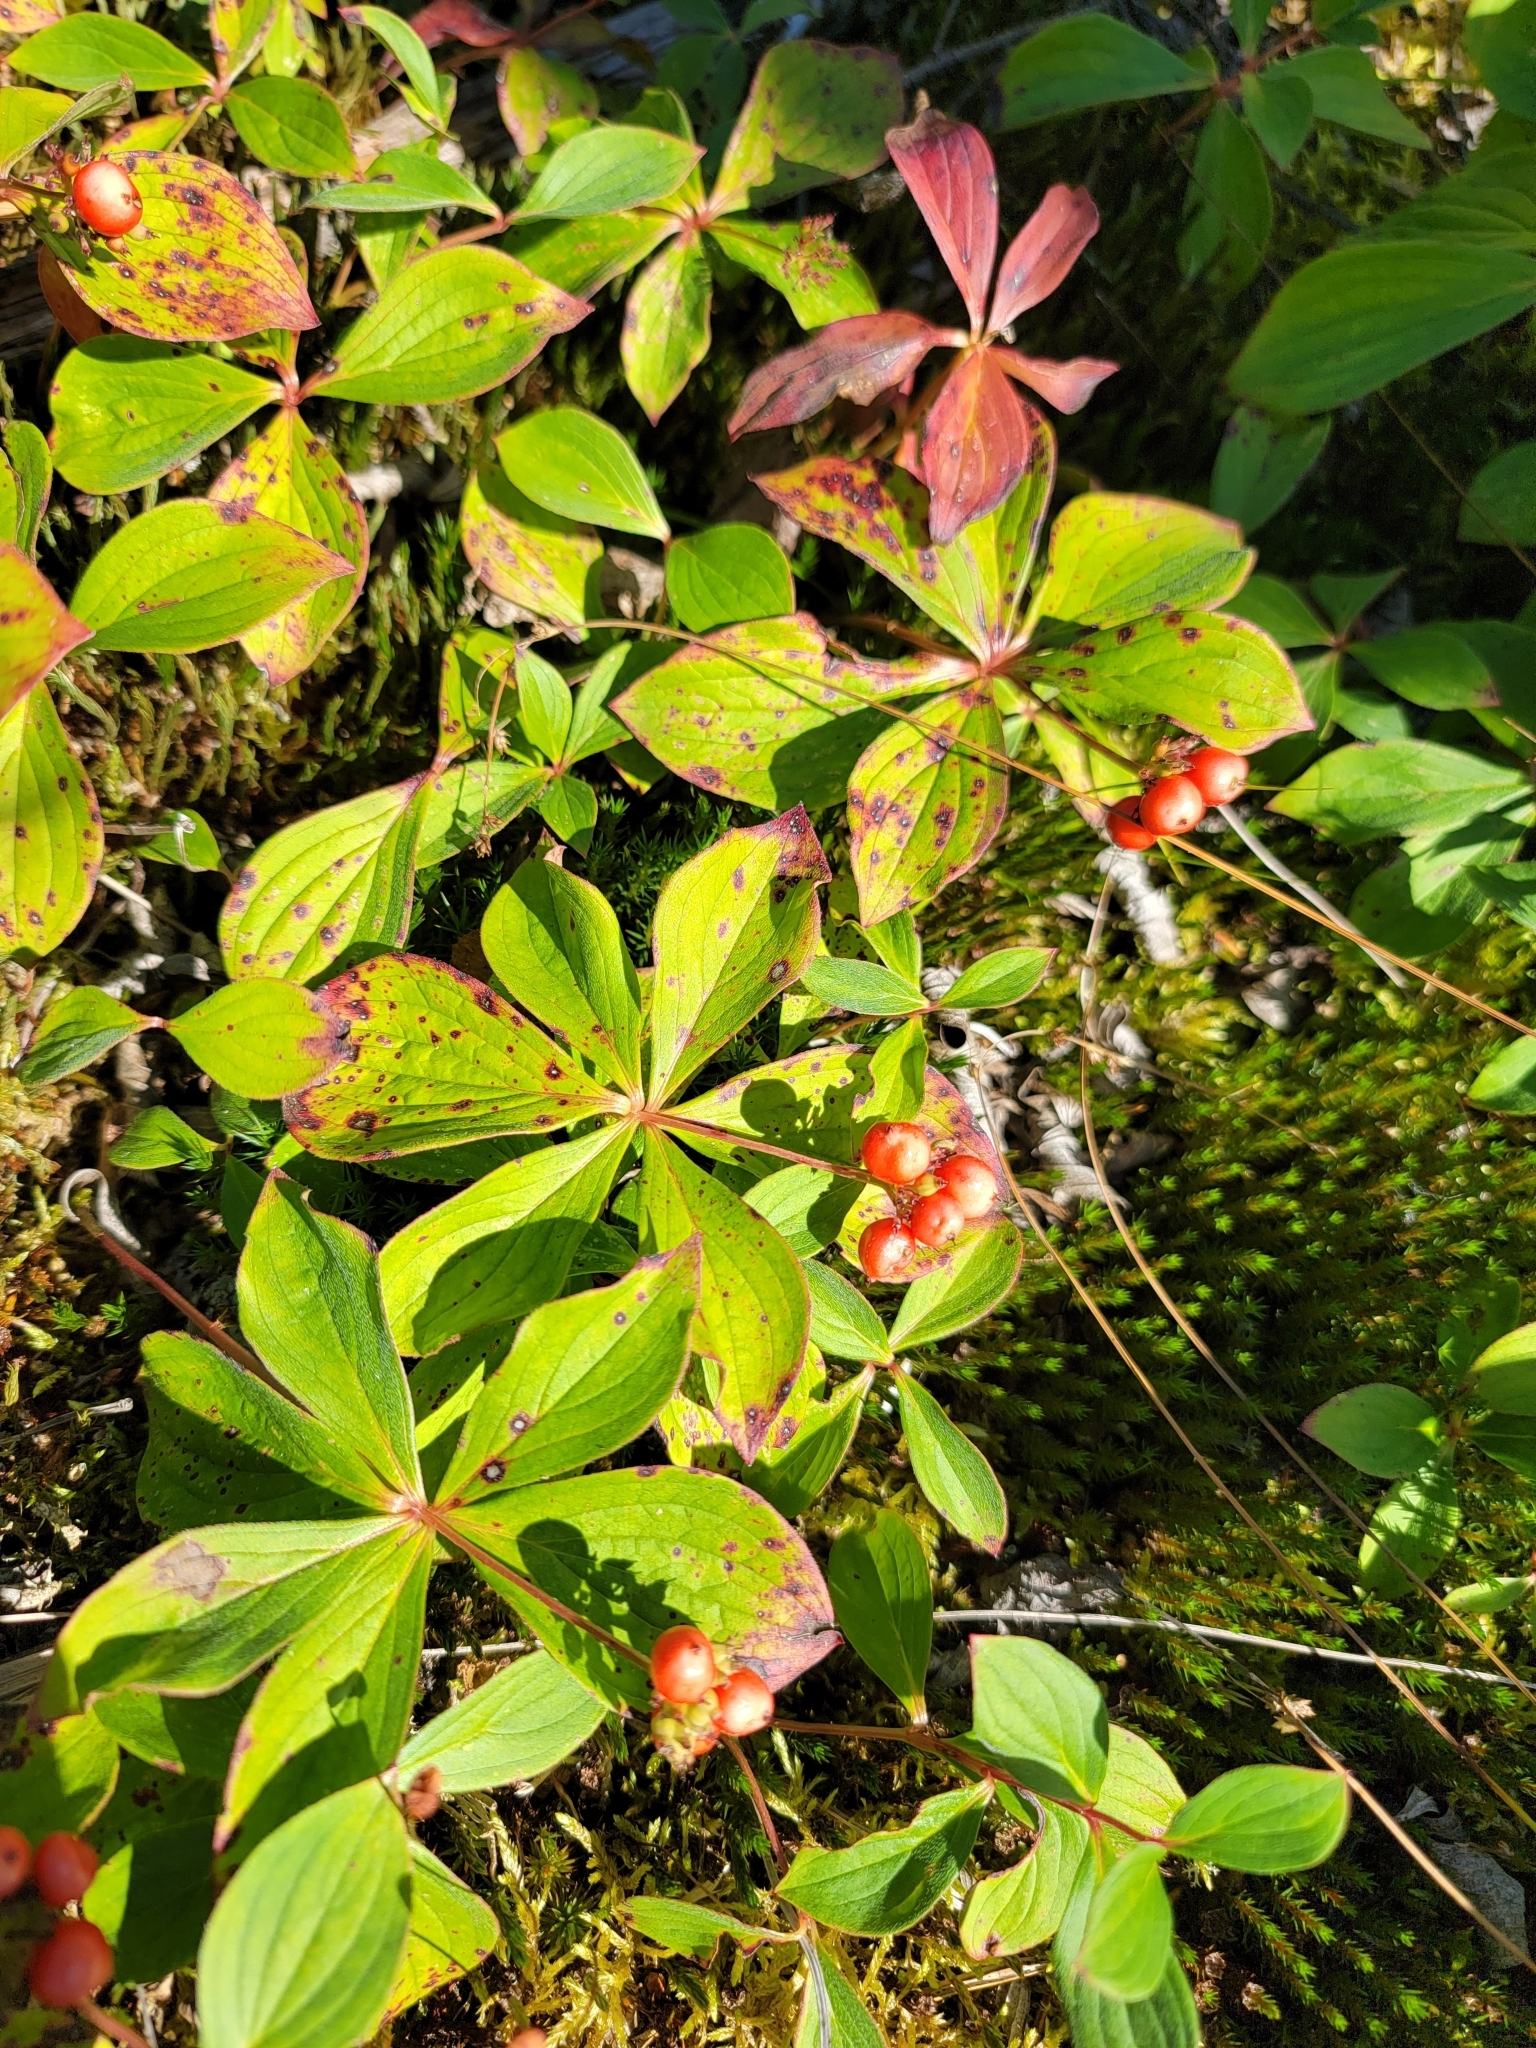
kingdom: Plantae
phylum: Tracheophyta
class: Magnoliopsida
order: Cornales
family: Cornaceae
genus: Cornus
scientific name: Cornus canadensis
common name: Creeping dogwood
